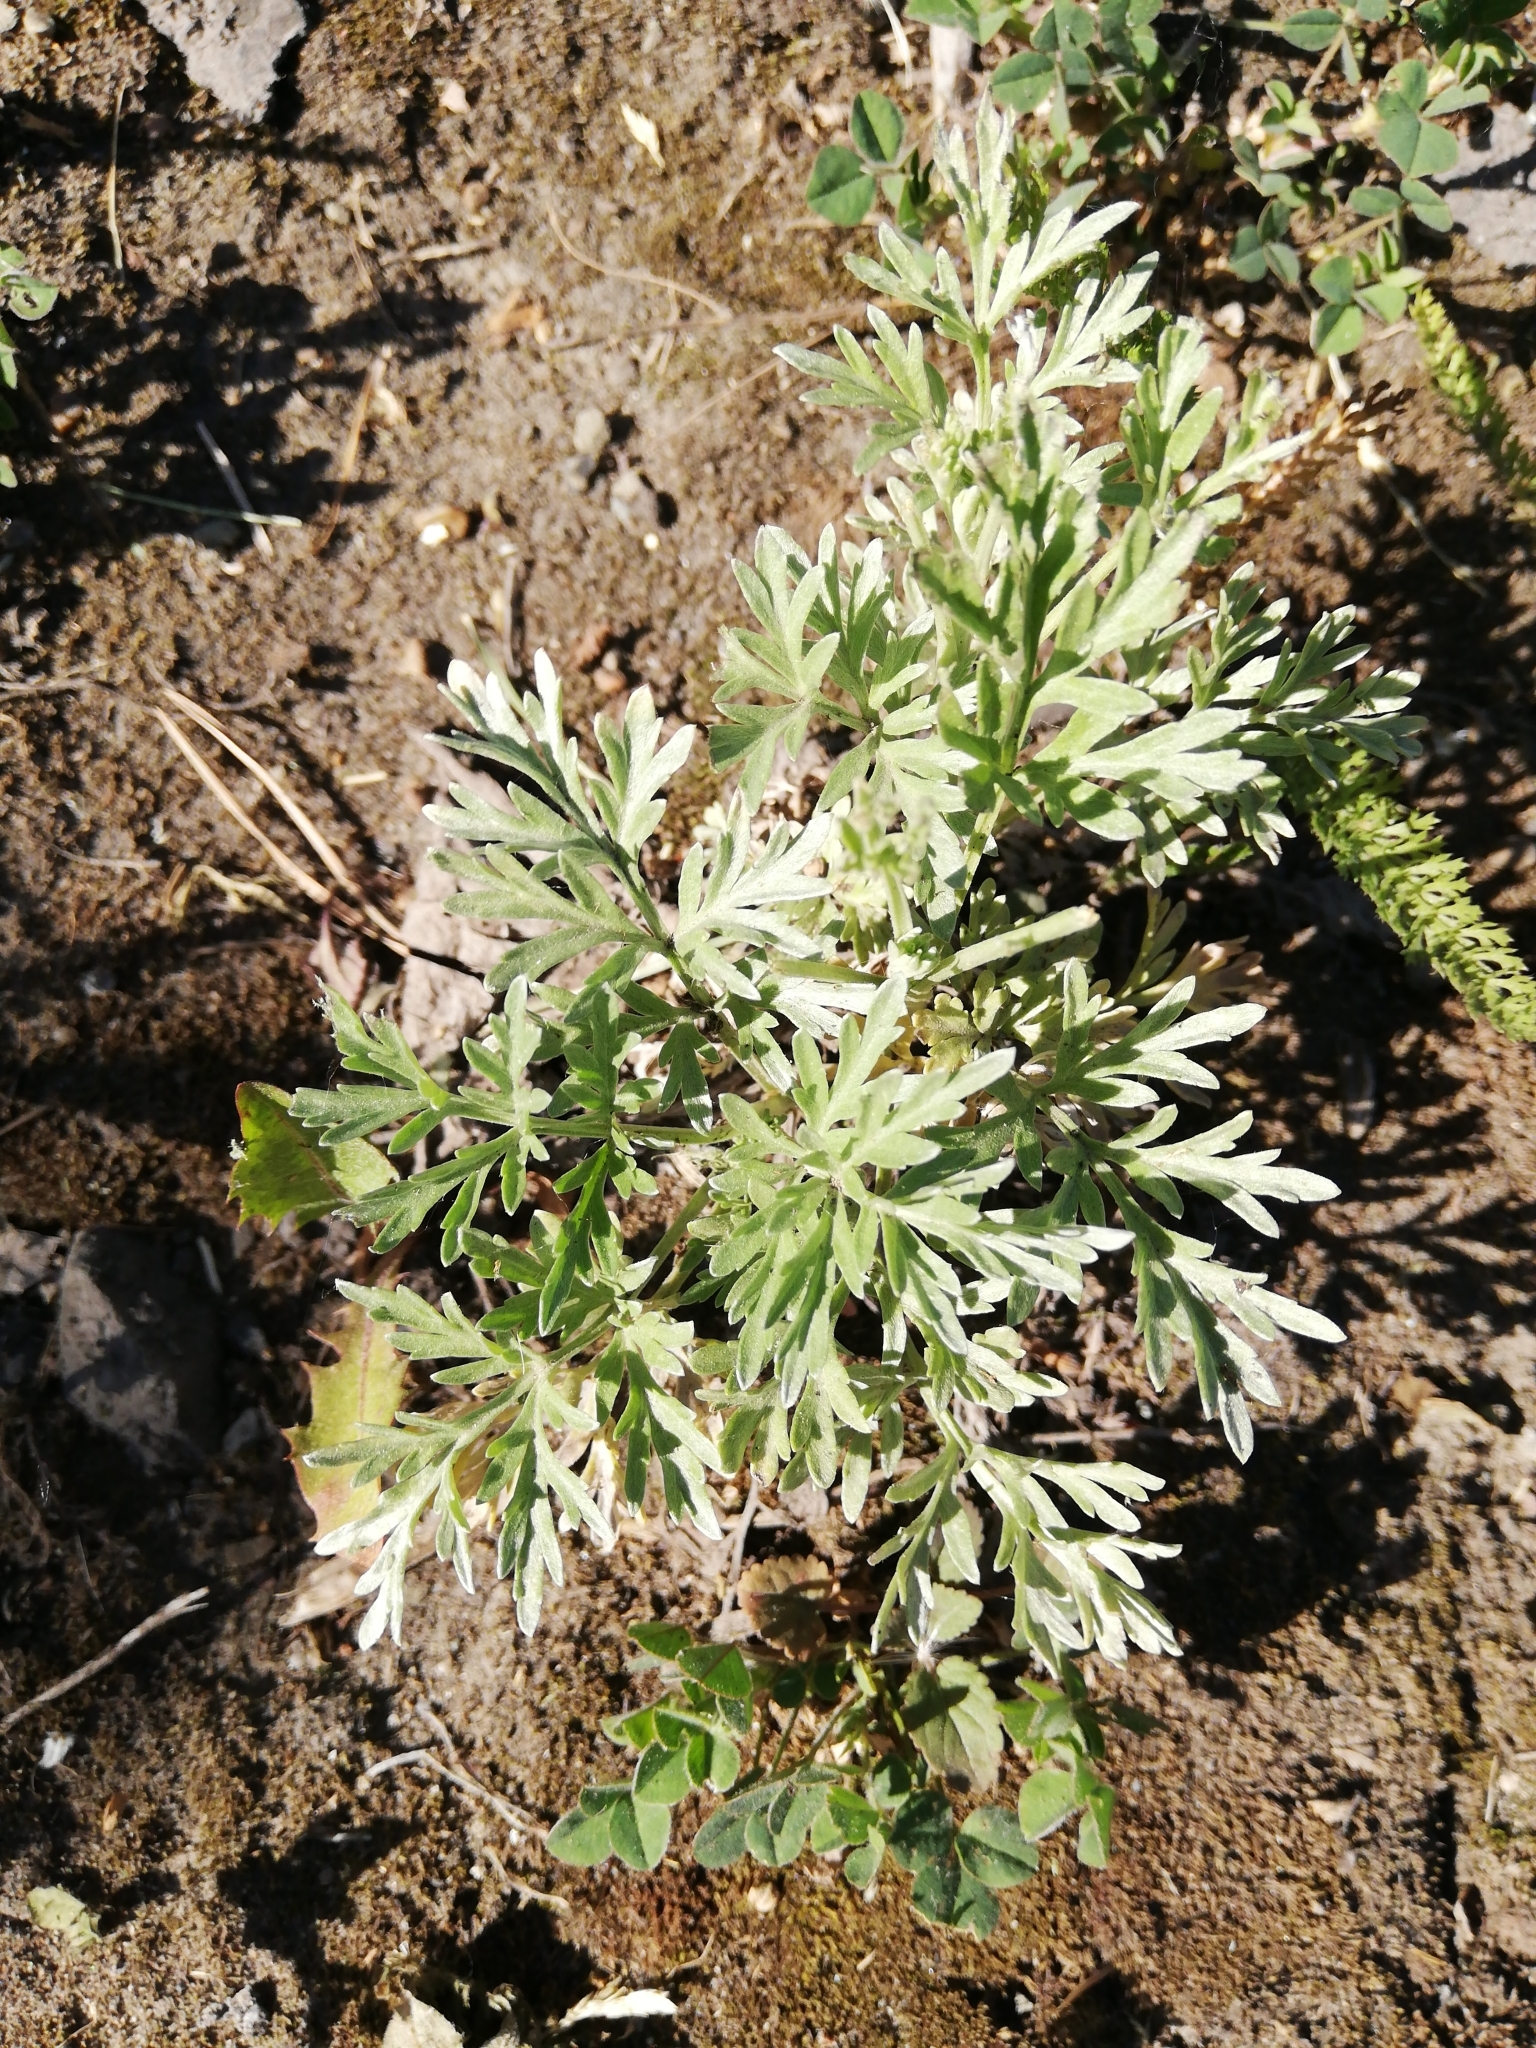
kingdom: Plantae
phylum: Tracheophyta
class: Magnoliopsida
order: Asterales
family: Asteraceae
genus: Artemisia
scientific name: Artemisia absinthium
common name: Wormwood
